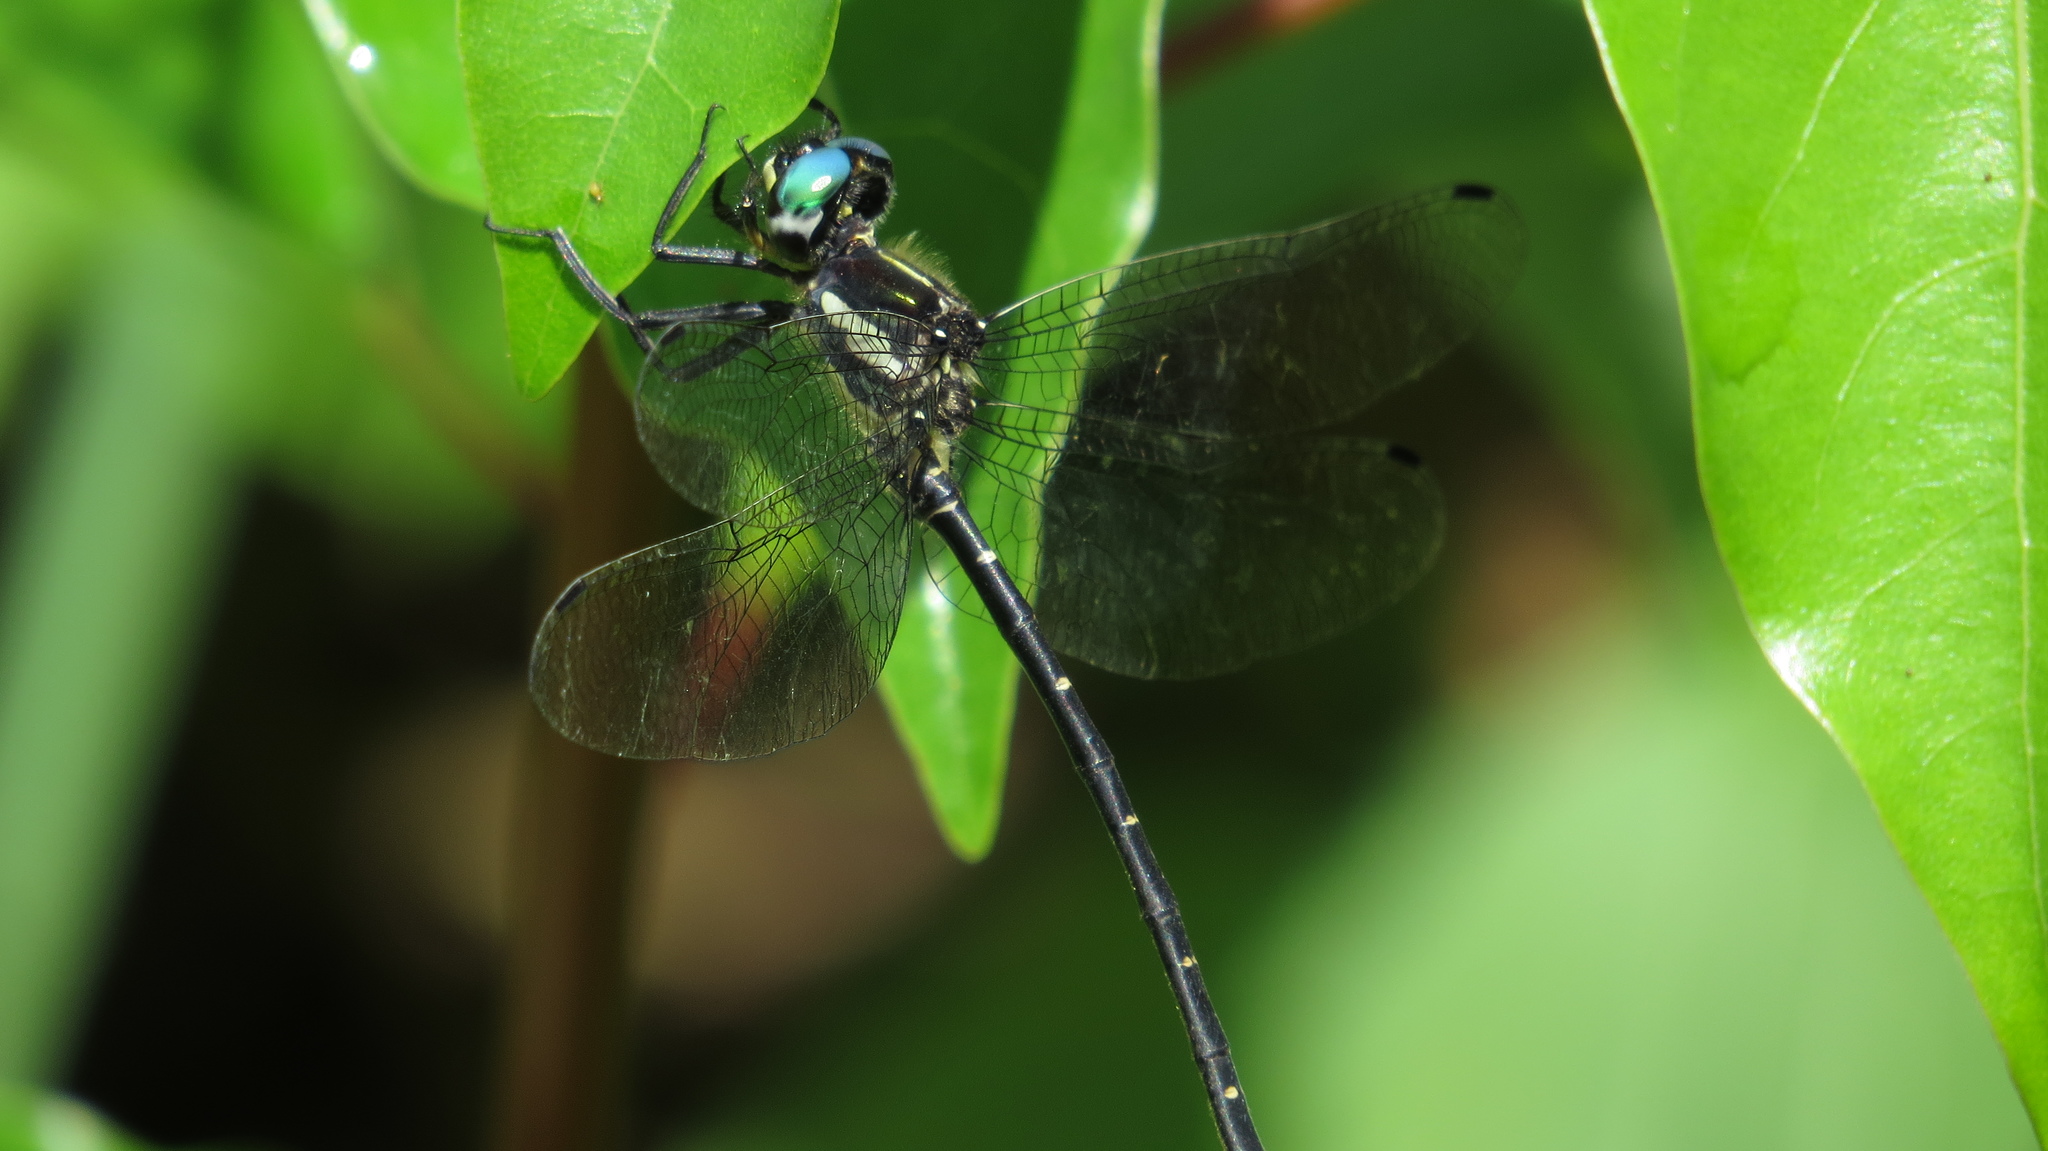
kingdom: Animalia
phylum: Arthropoda
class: Insecta
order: Odonata
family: Synthemistidae
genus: Eusynthemis
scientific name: Eusynthemis nigra
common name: Black tigertail
